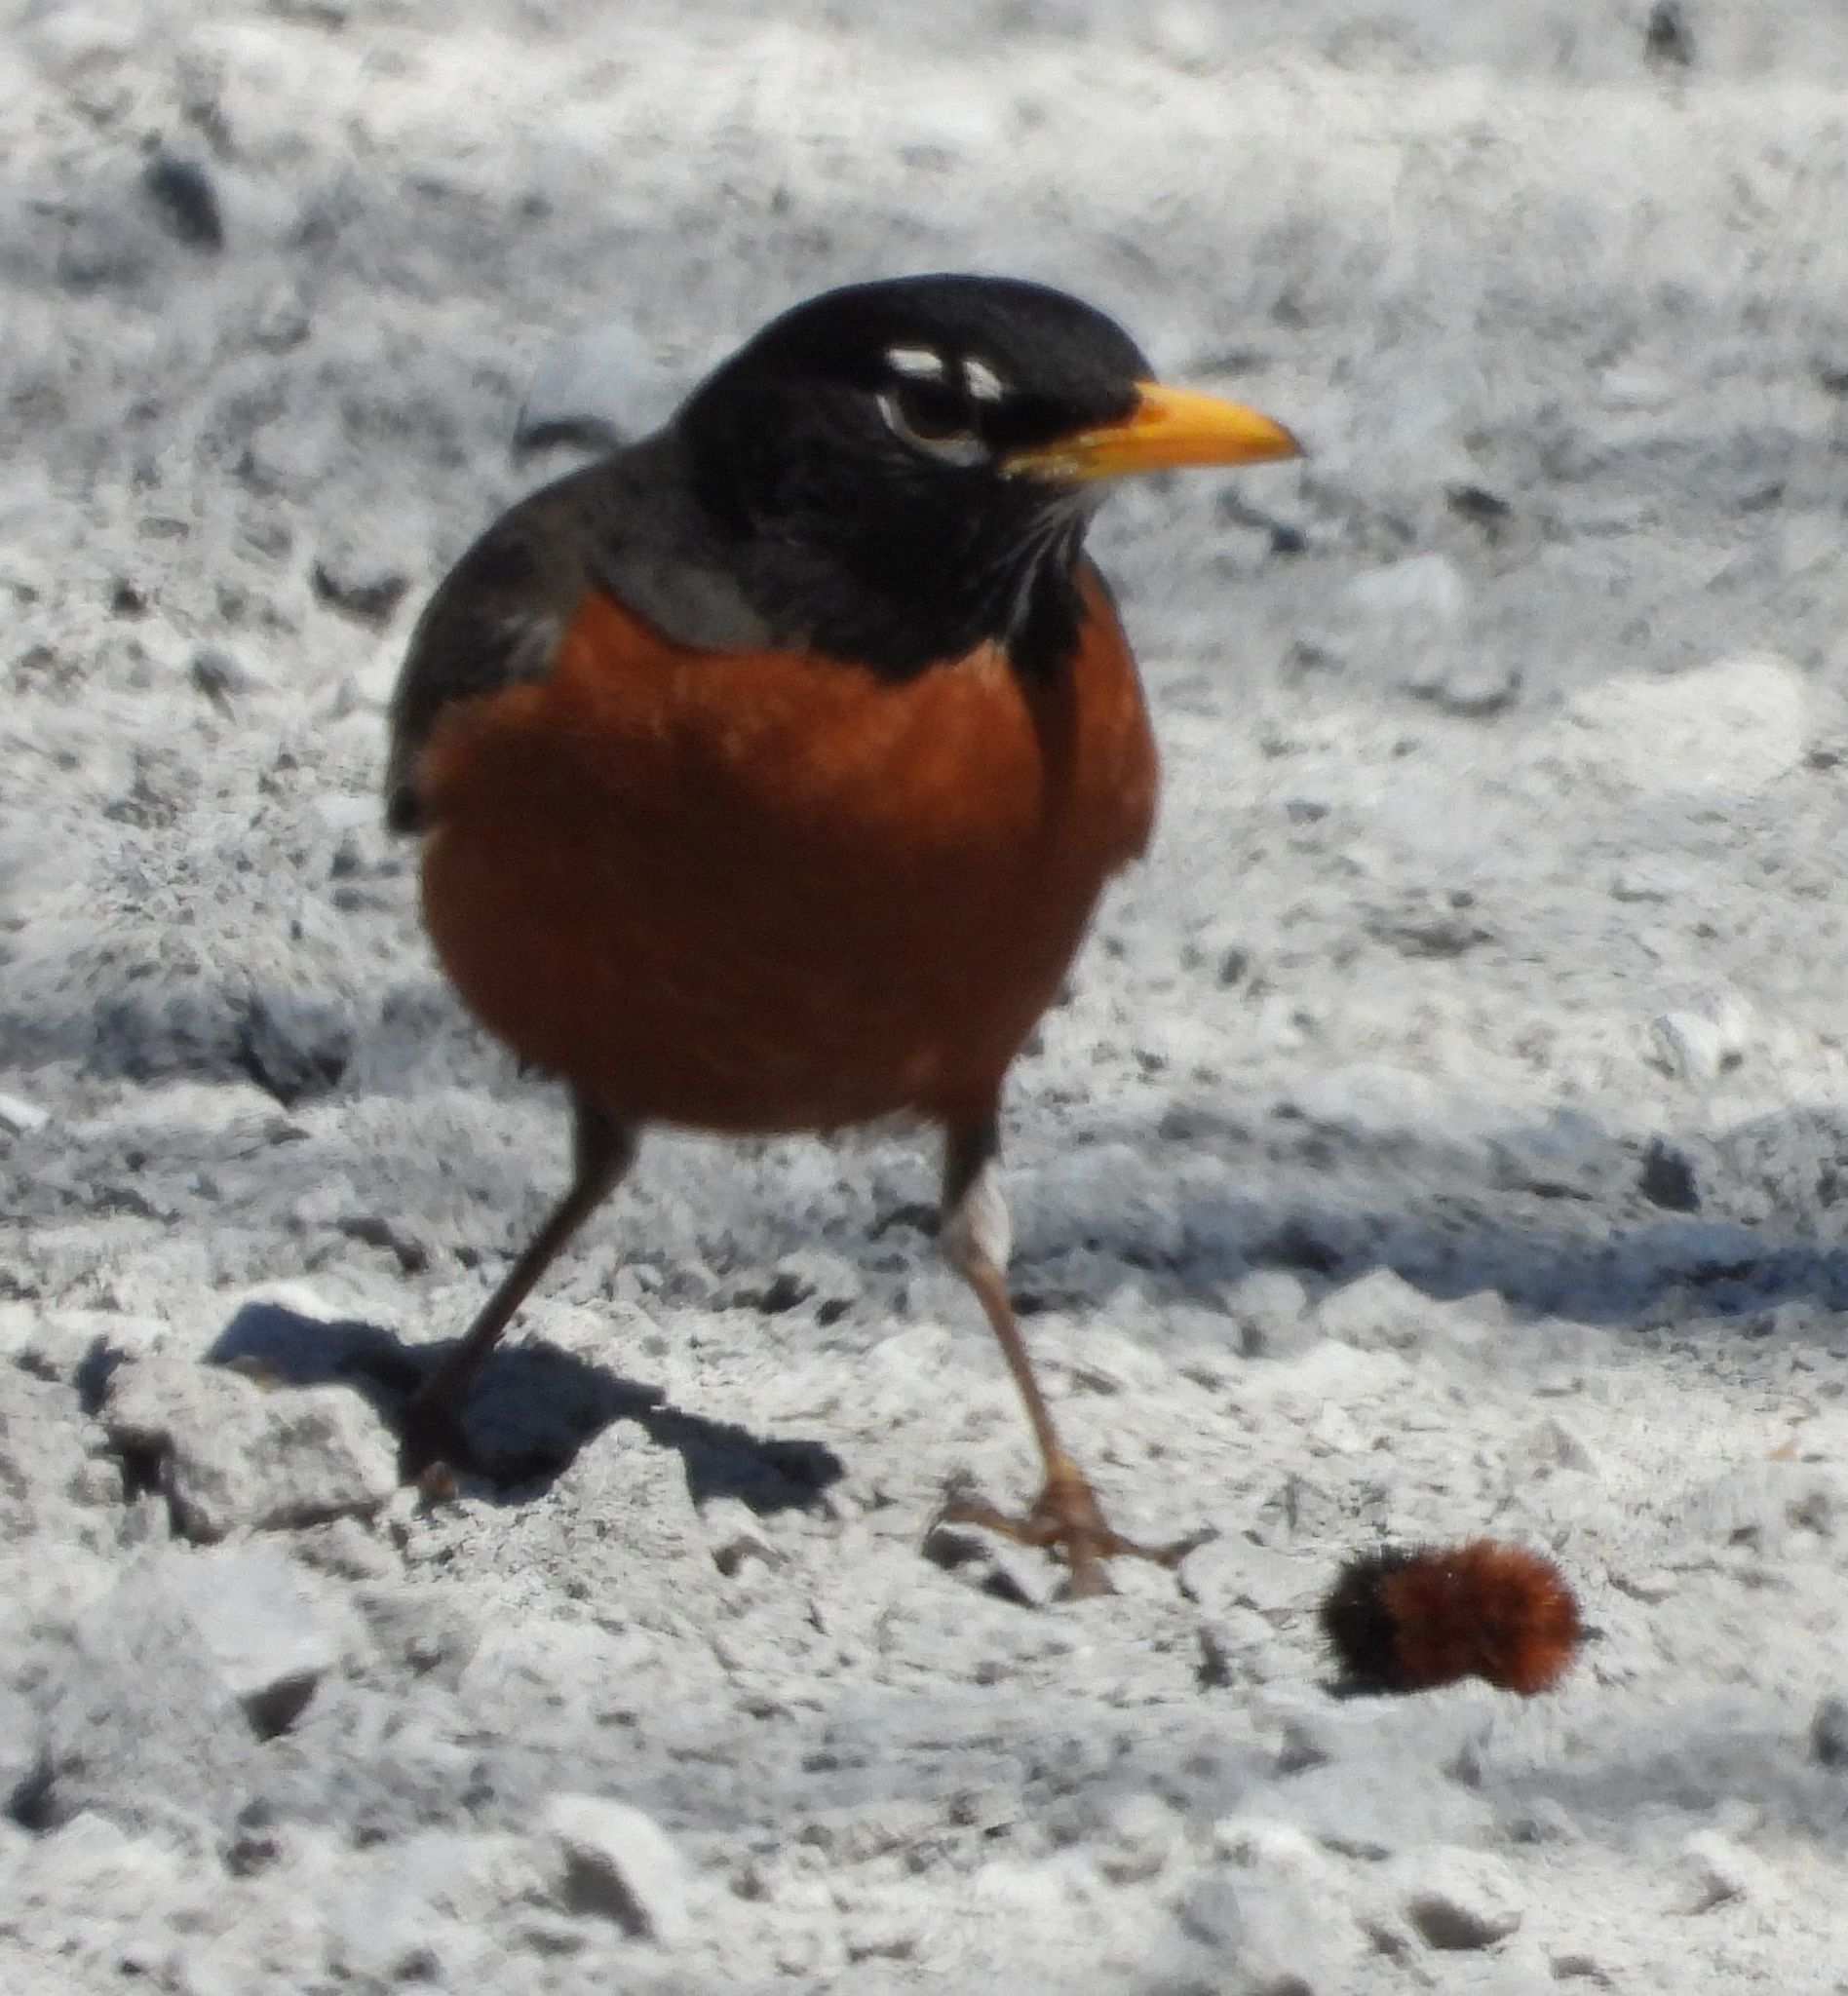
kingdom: Animalia
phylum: Chordata
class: Aves
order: Passeriformes
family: Turdidae
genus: Turdus
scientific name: Turdus migratorius
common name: American robin
